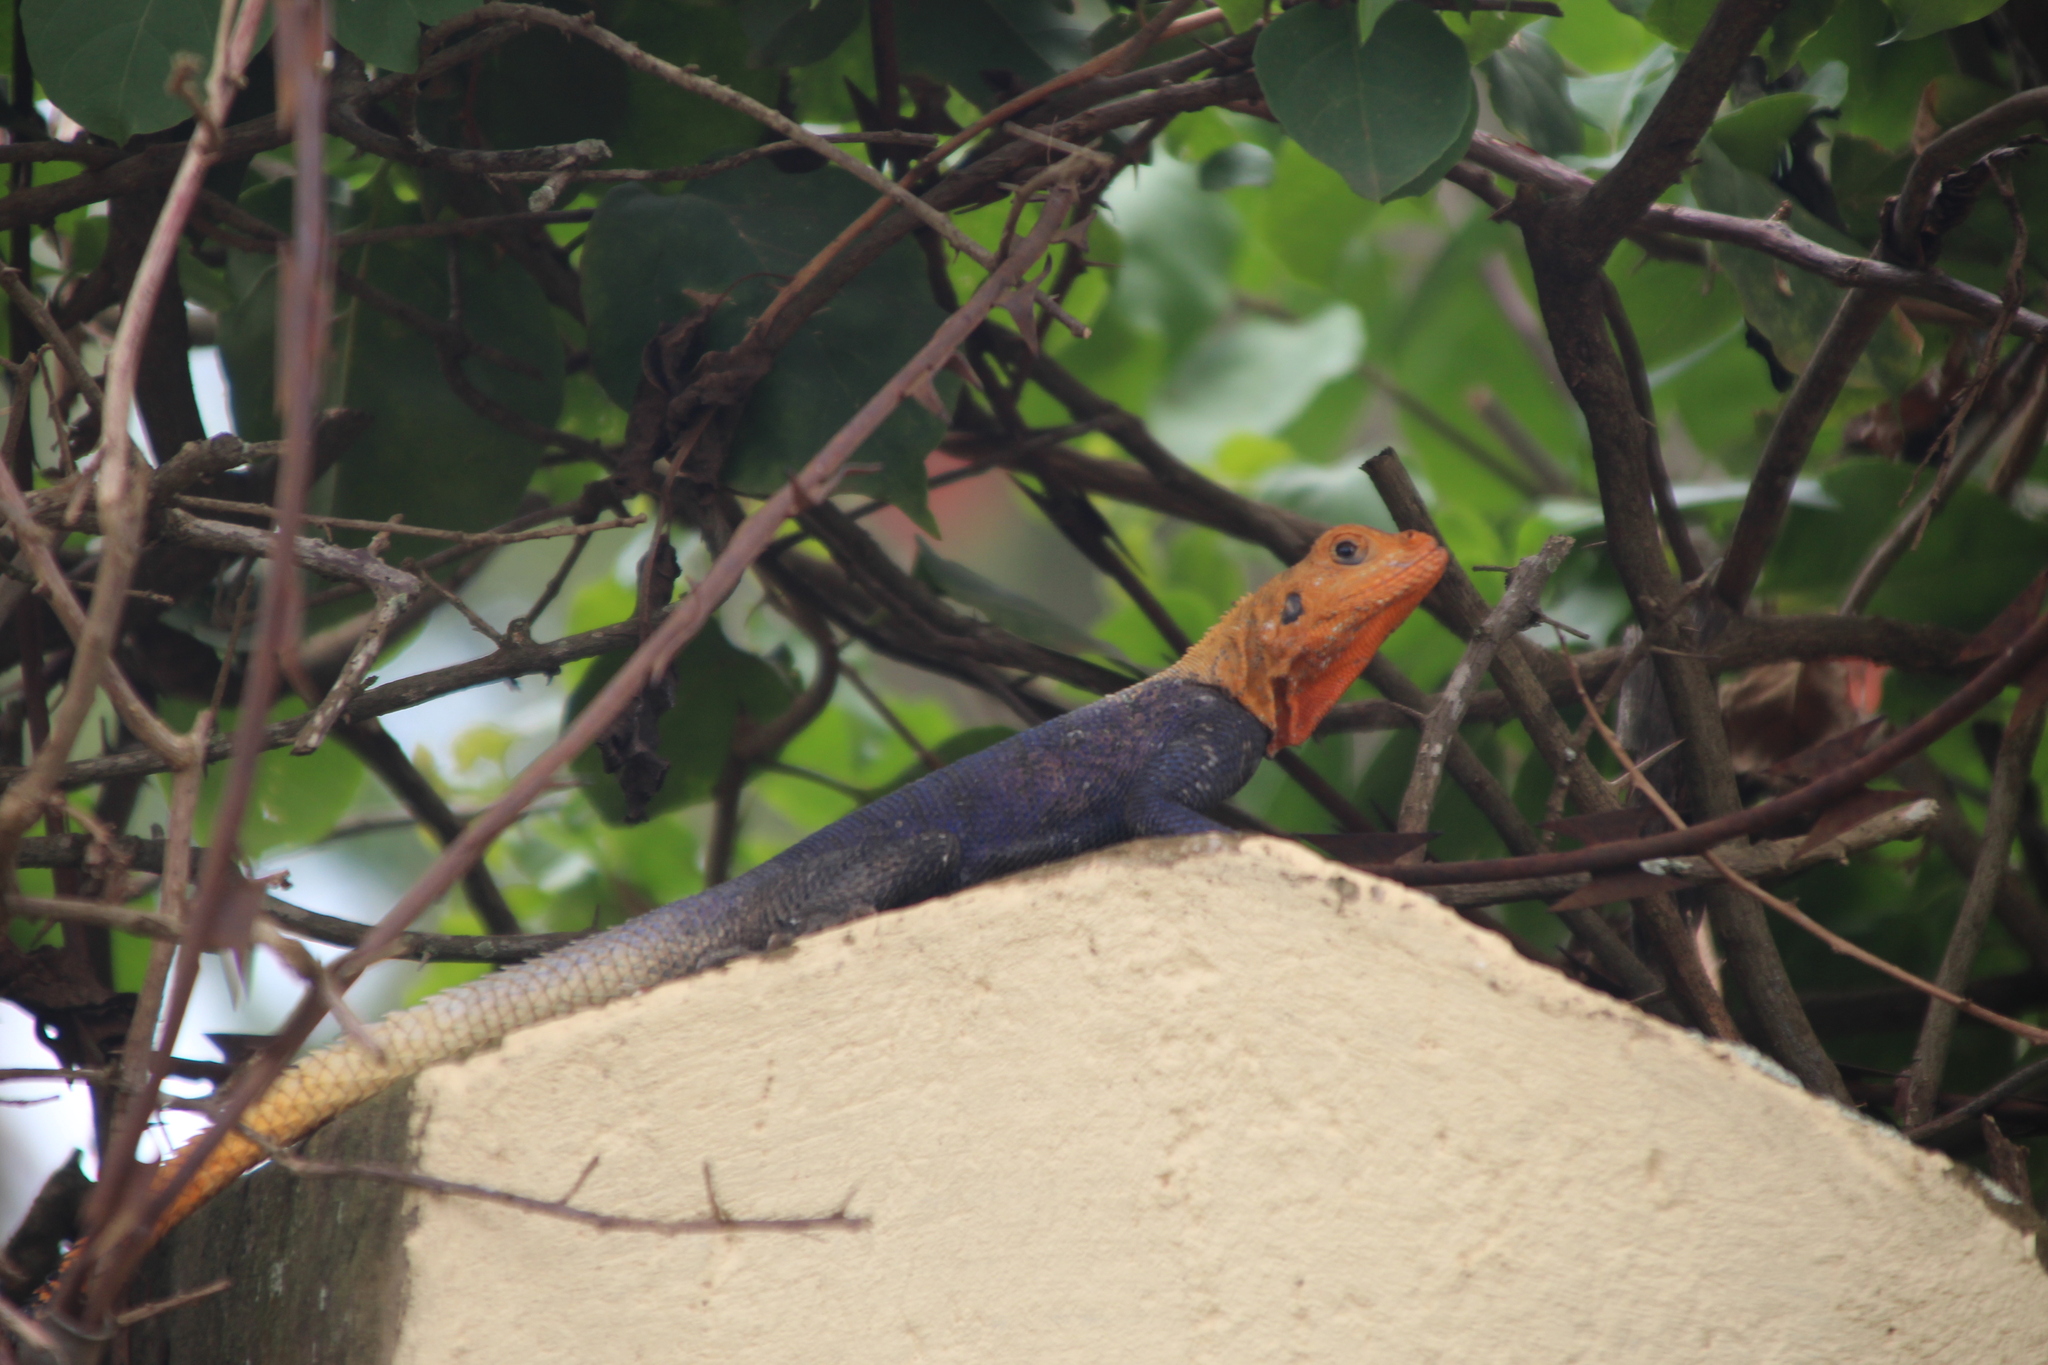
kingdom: Animalia
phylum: Chordata
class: Squamata
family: Agamidae
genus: Agama
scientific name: Agama finchi
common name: Finch’s agama
